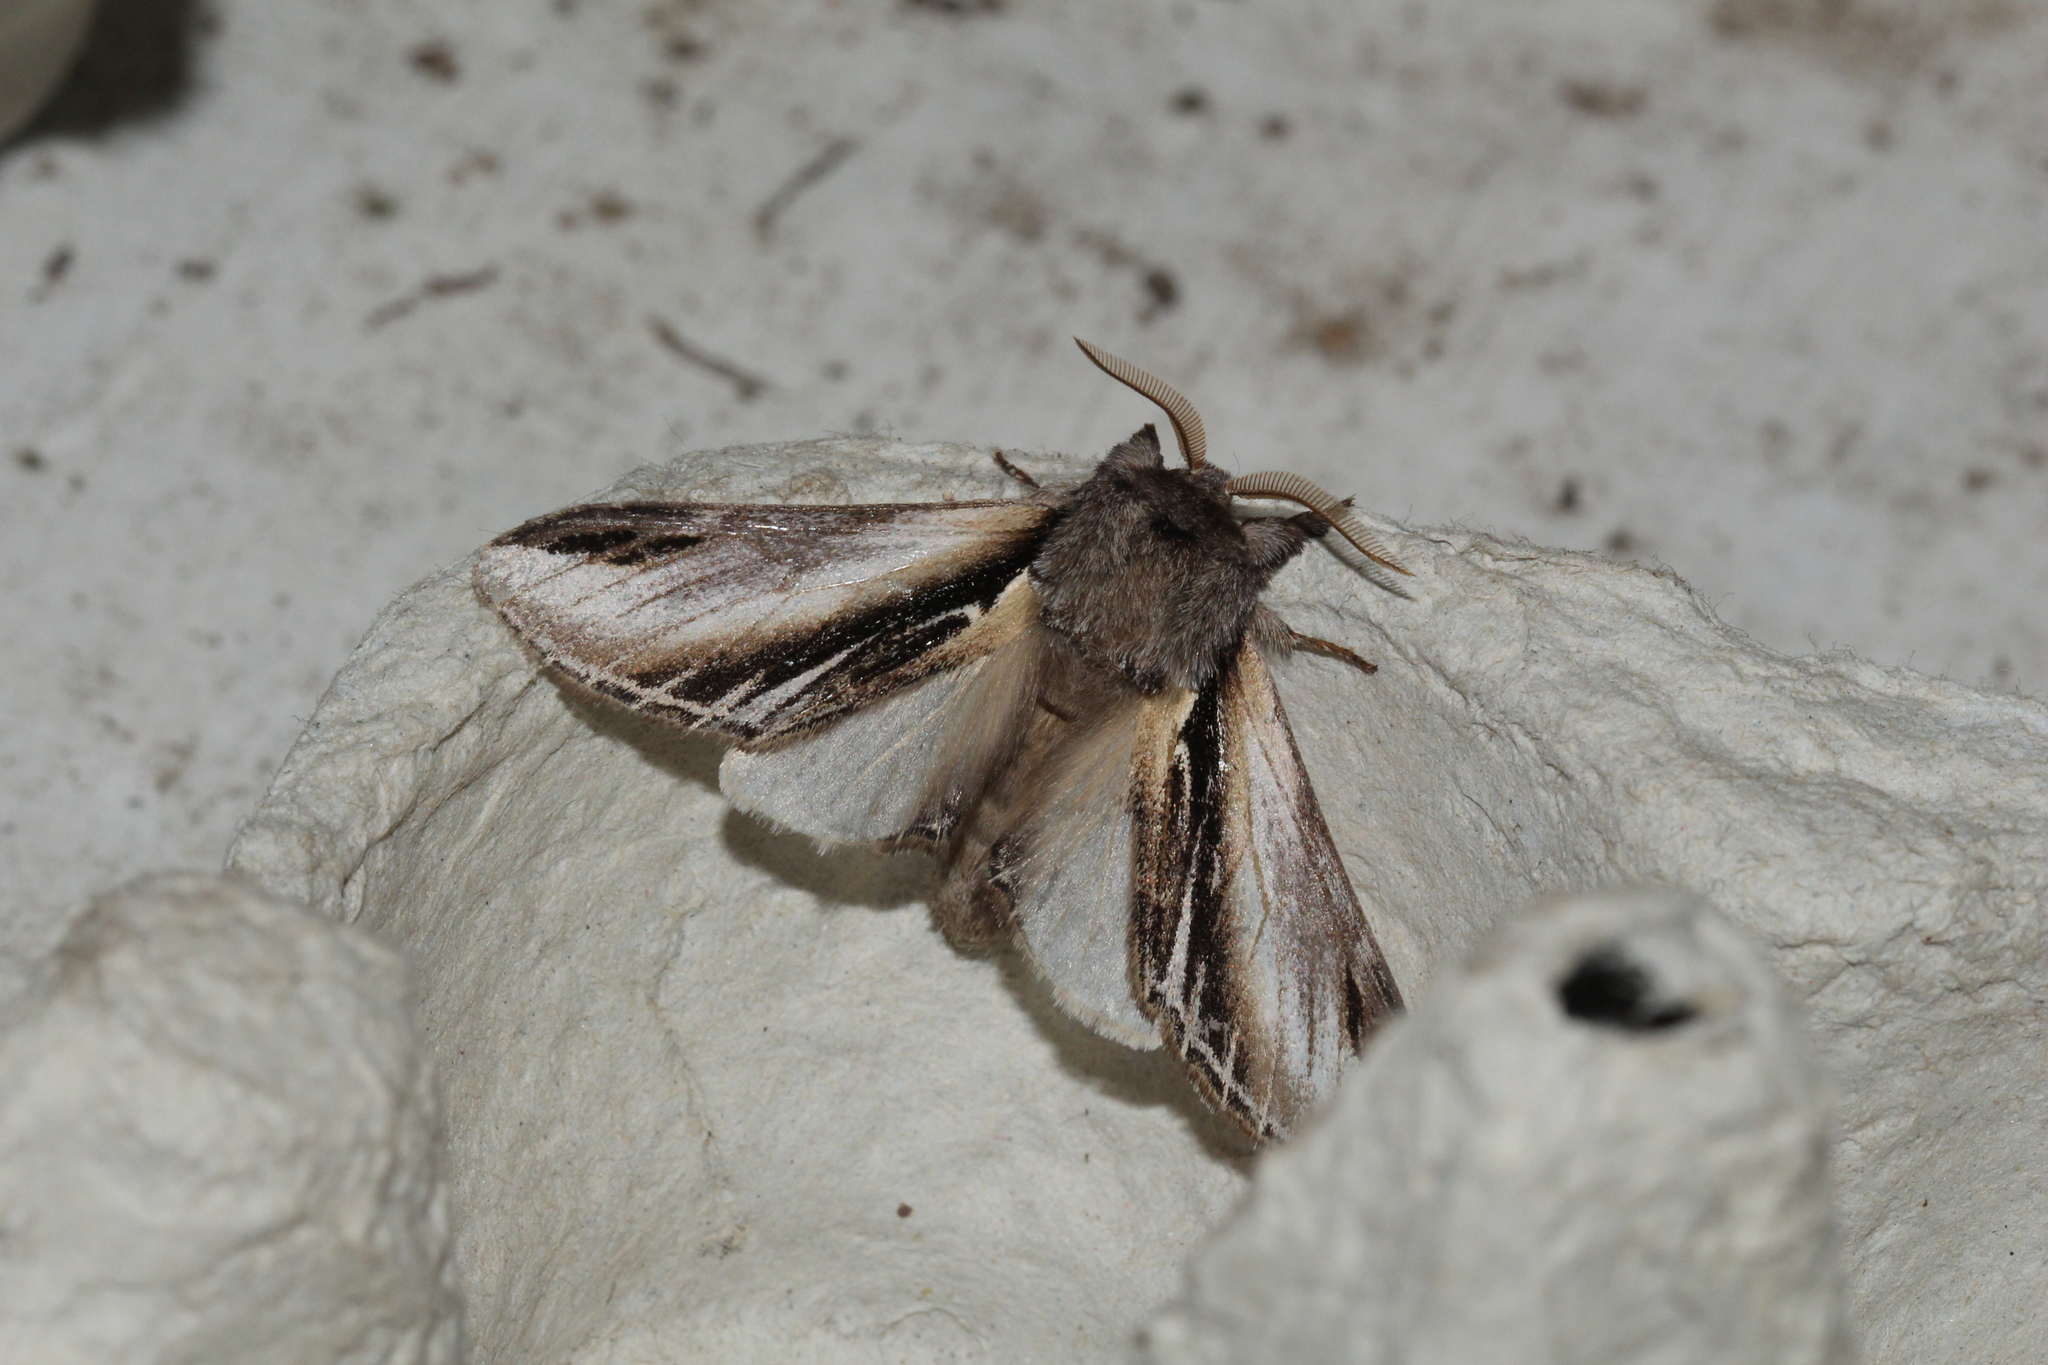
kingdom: Animalia
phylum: Arthropoda
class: Insecta
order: Lepidoptera
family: Notodontidae
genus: Pheosia
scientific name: Pheosia tremula
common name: Swallow prominent
